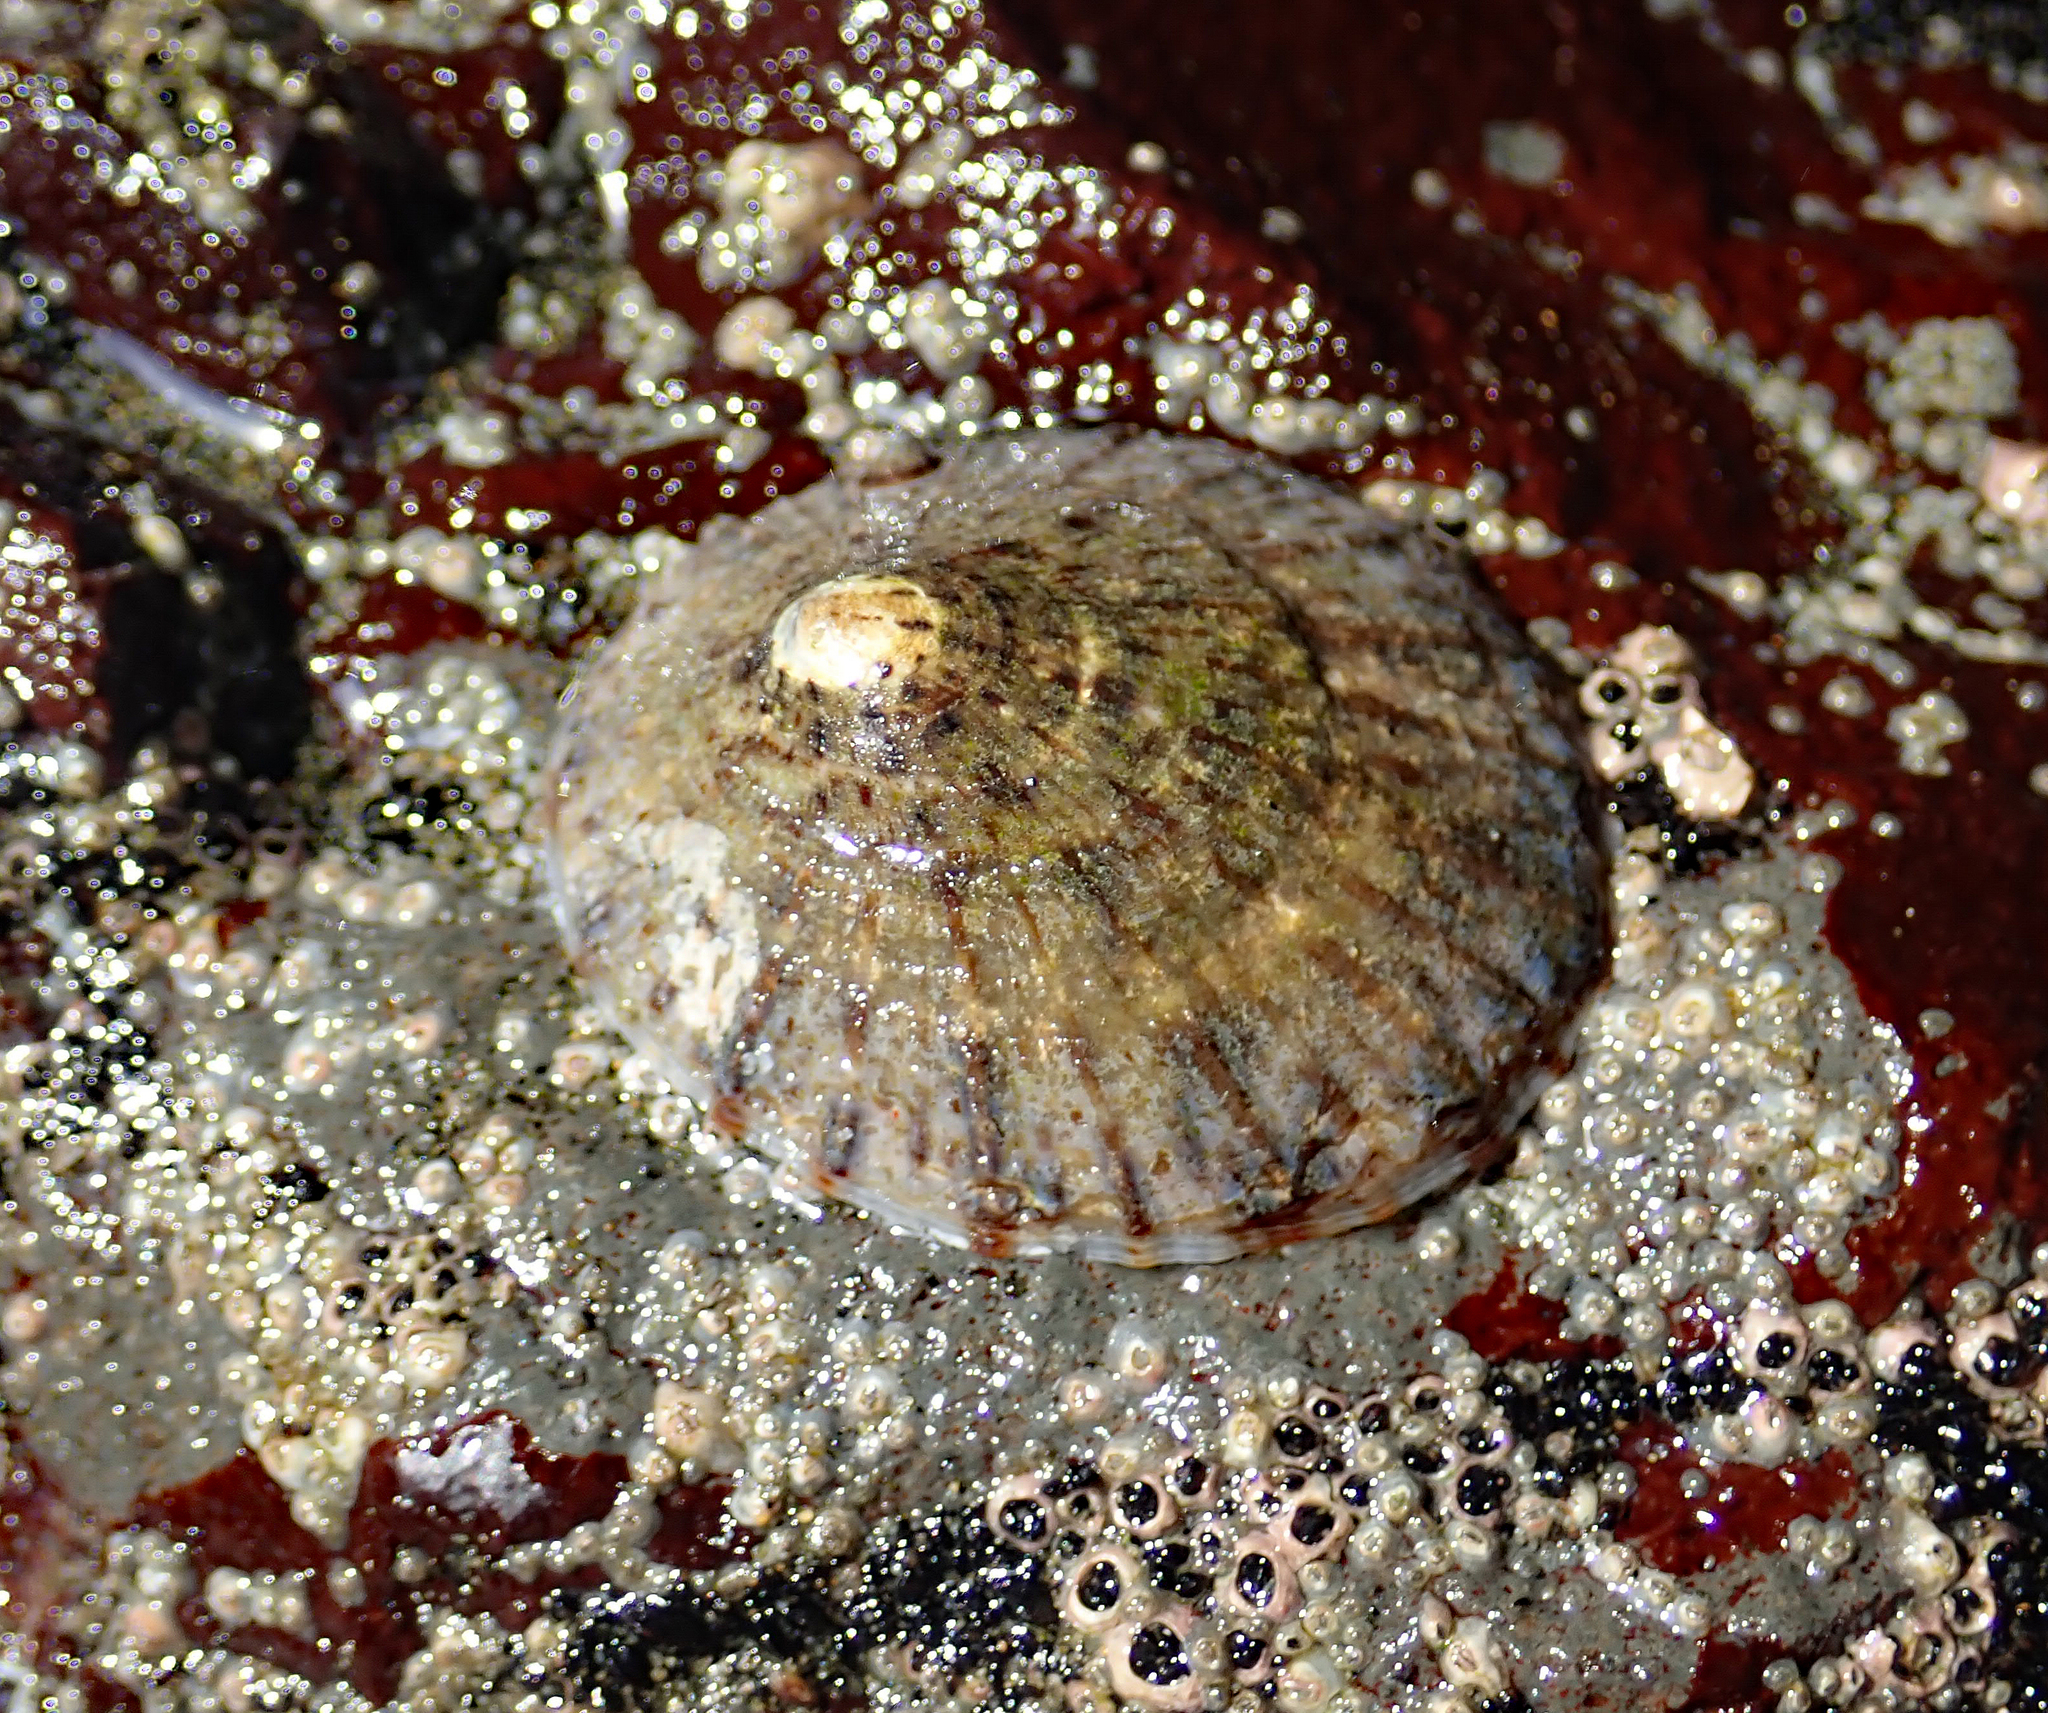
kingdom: Animalia
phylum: Mollusca
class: Gastropoda
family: Nacellidae
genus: Cellana
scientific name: Cellana radians
